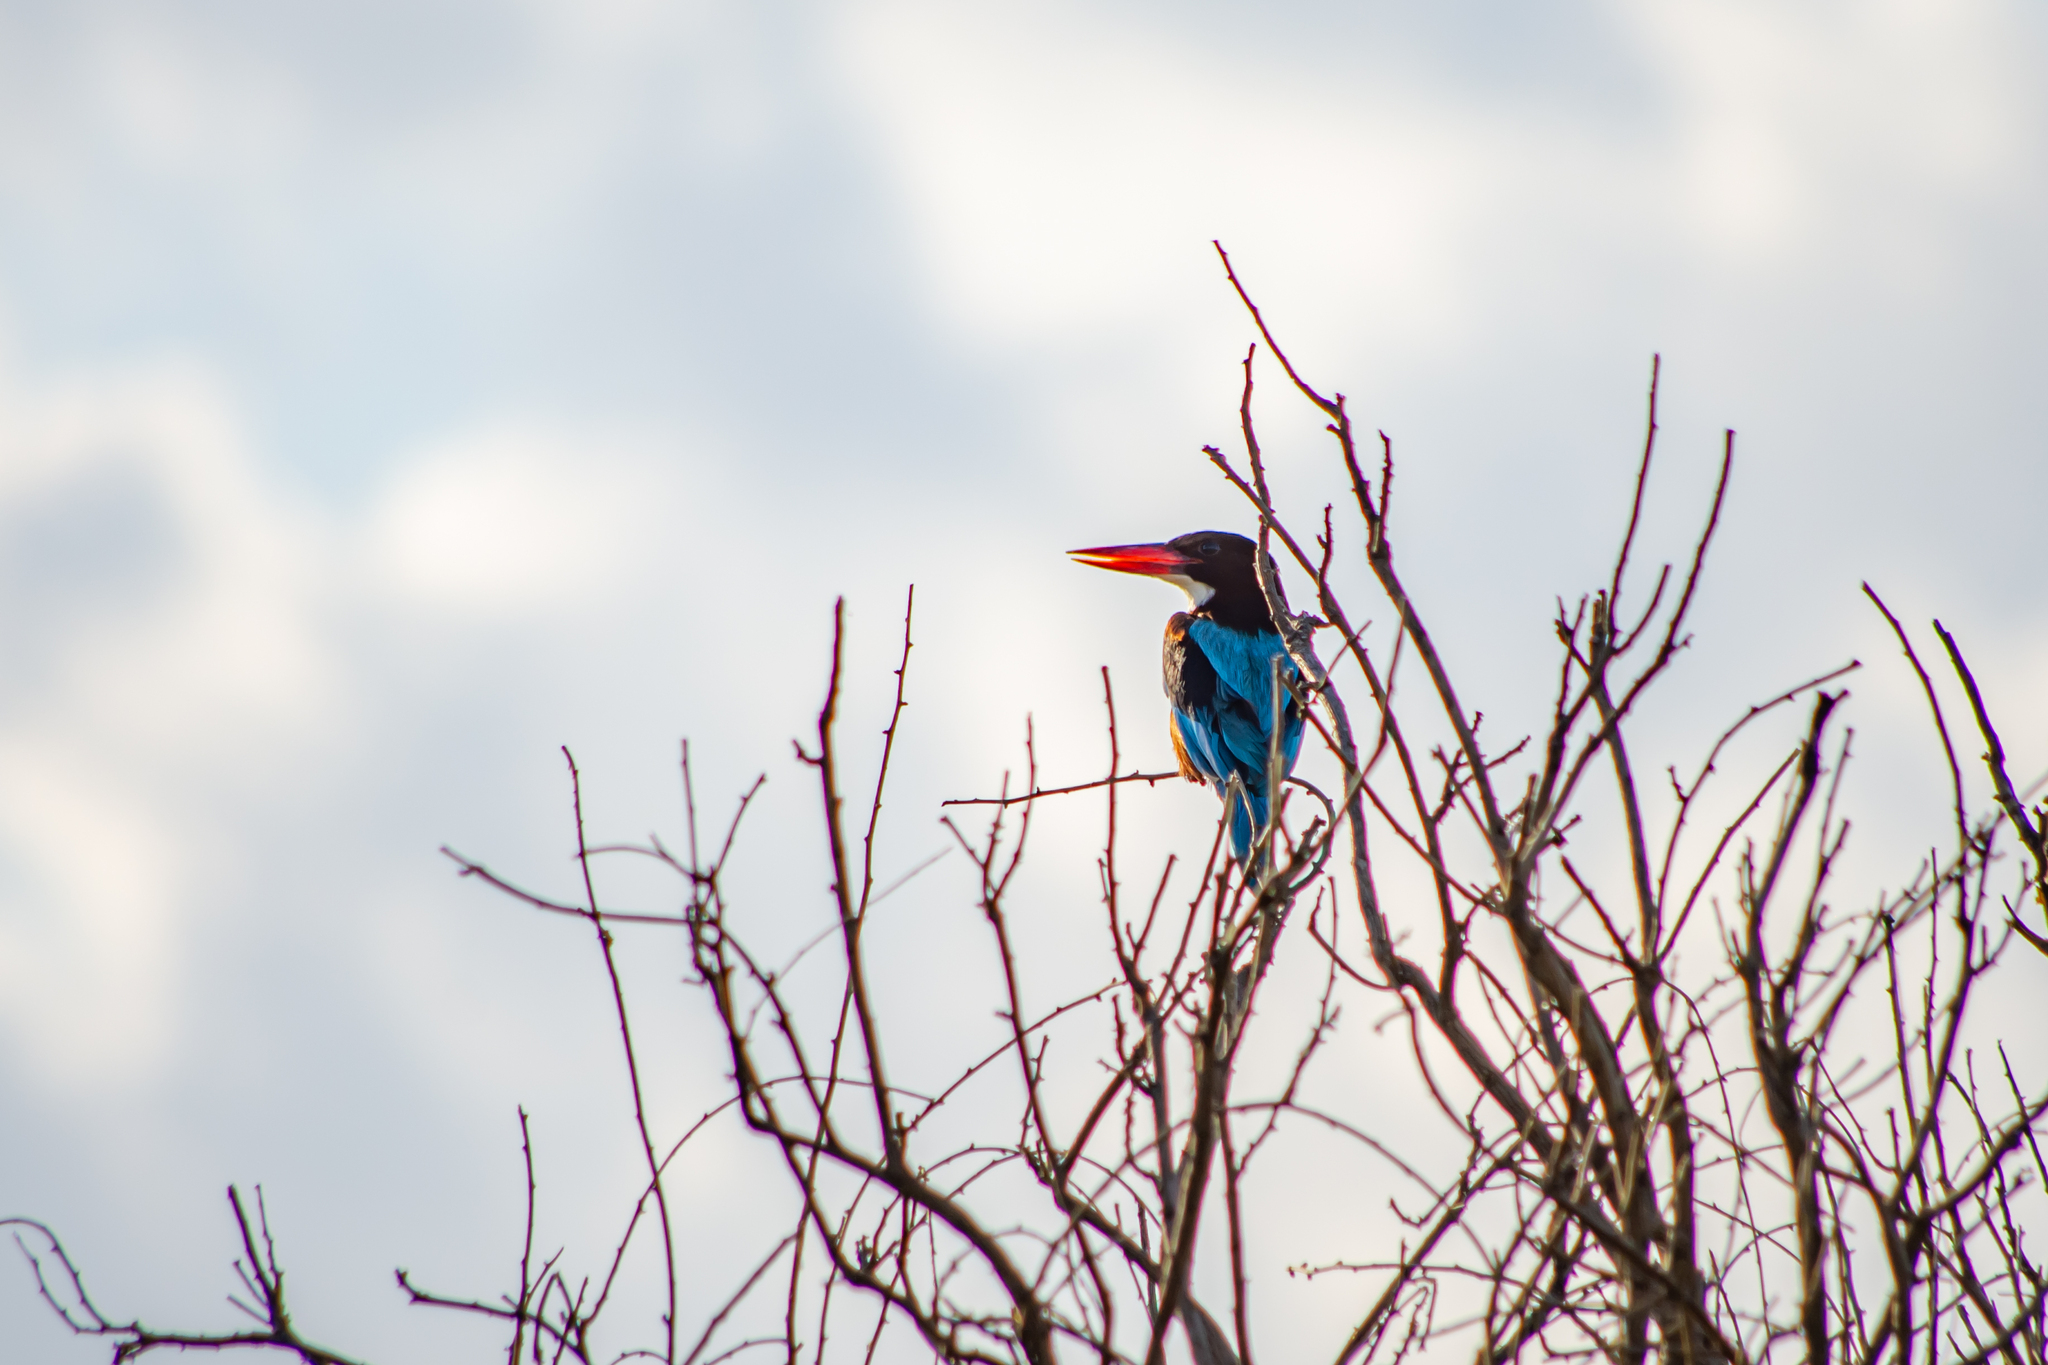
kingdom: Animalia
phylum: Chordata
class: Aves
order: Coraciiformes
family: Alcedinidae
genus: Halcyon
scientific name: Halcyon smyrnensis
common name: White-throated kingfisher
